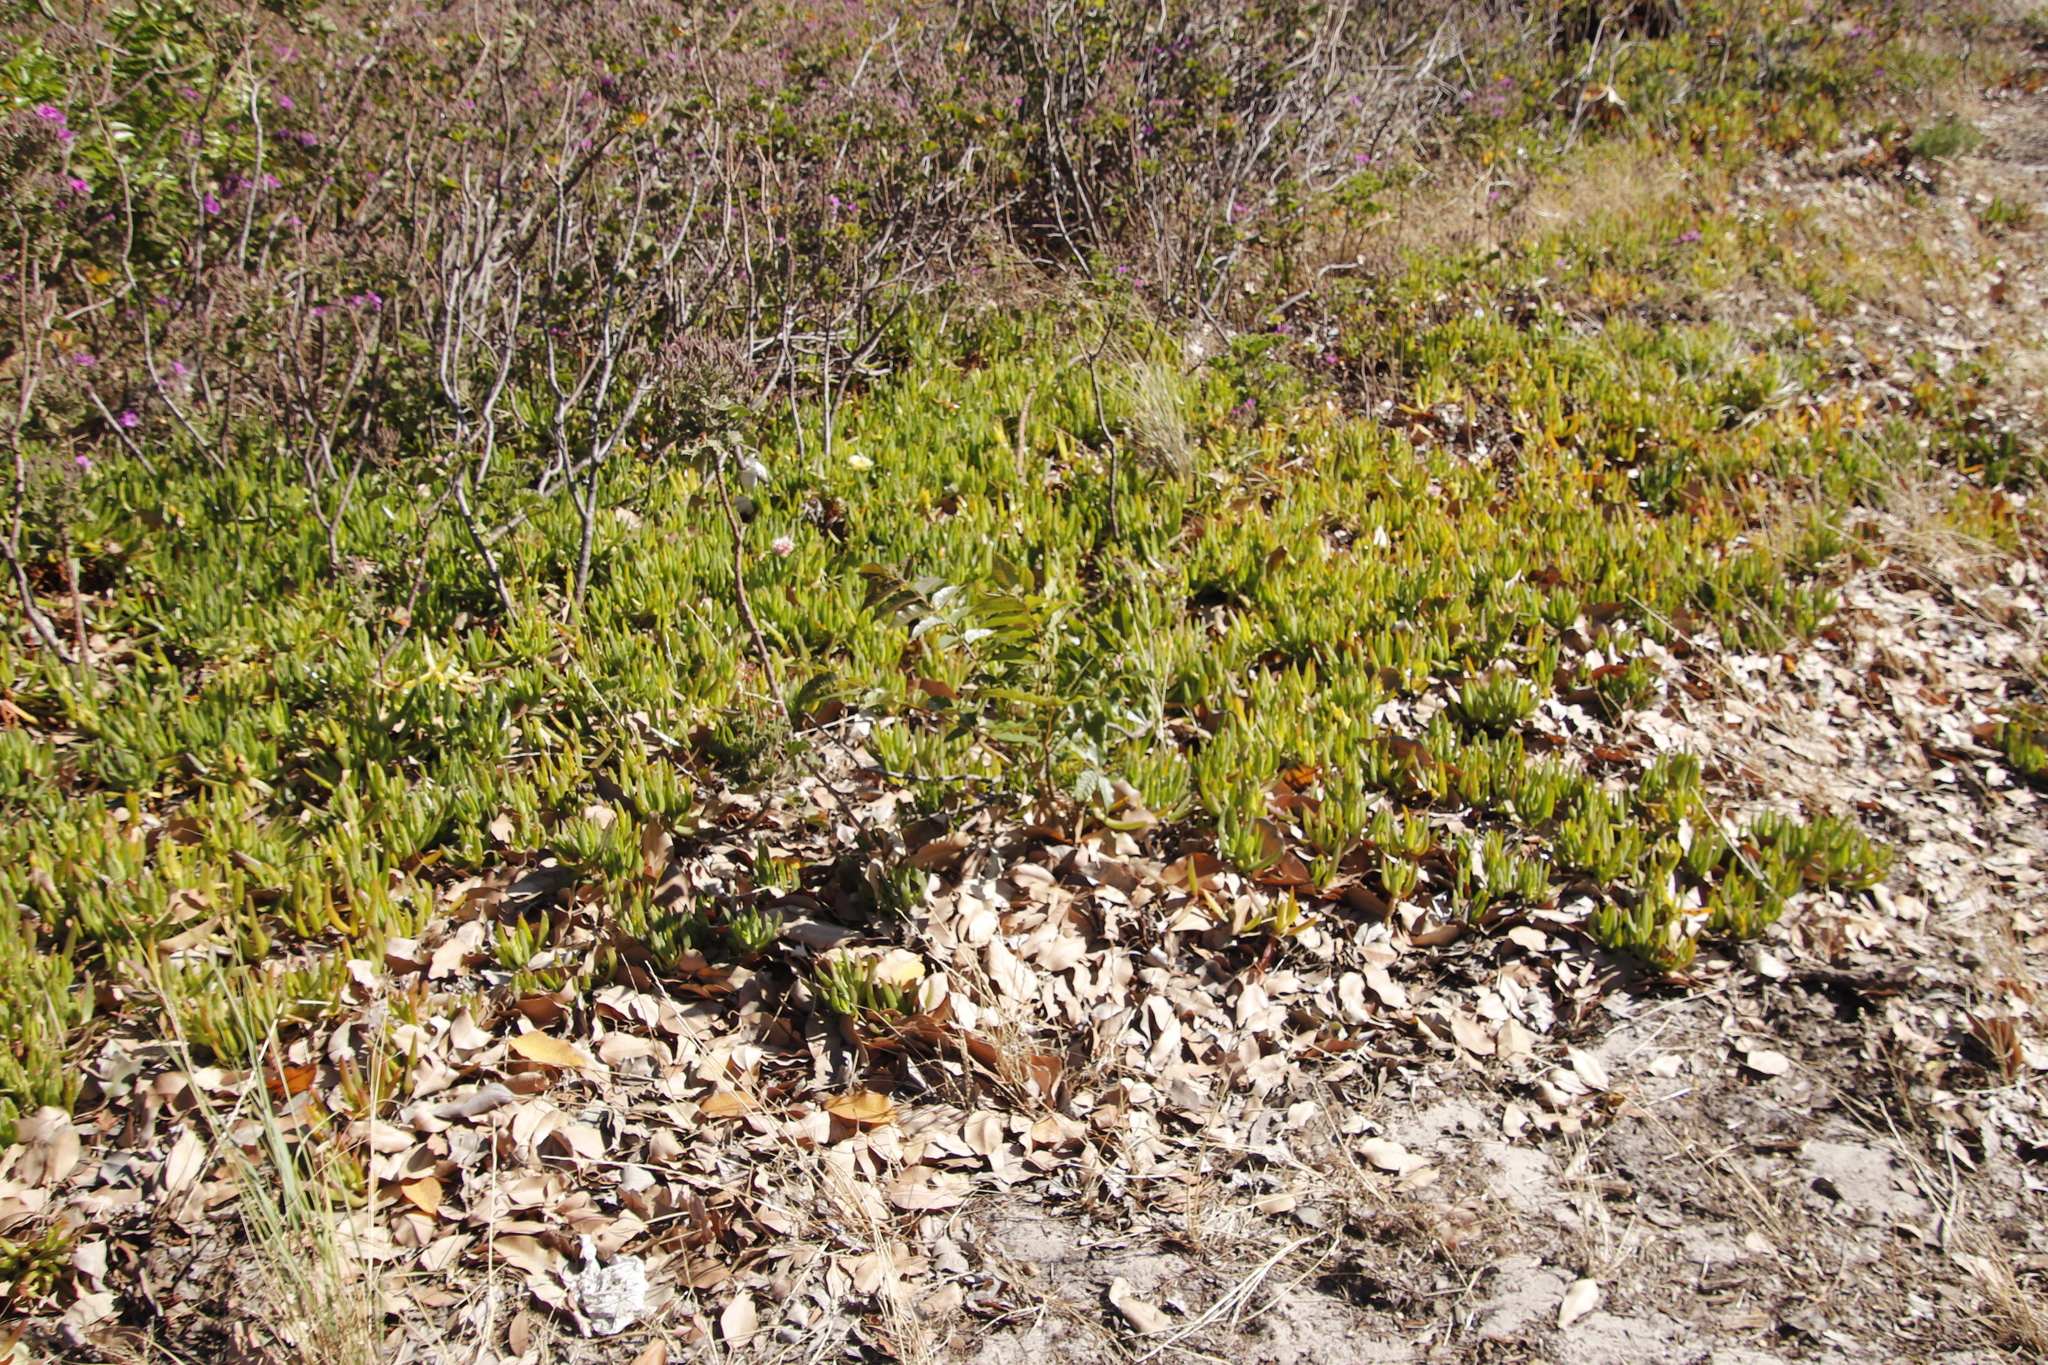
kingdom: Plantae
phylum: Tracheophyta
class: Magnoliopsida
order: Caryophyllales
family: Aizoaceae
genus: Carpobrotus
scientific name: Carpobrotus edulis
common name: Hottentot-fig
